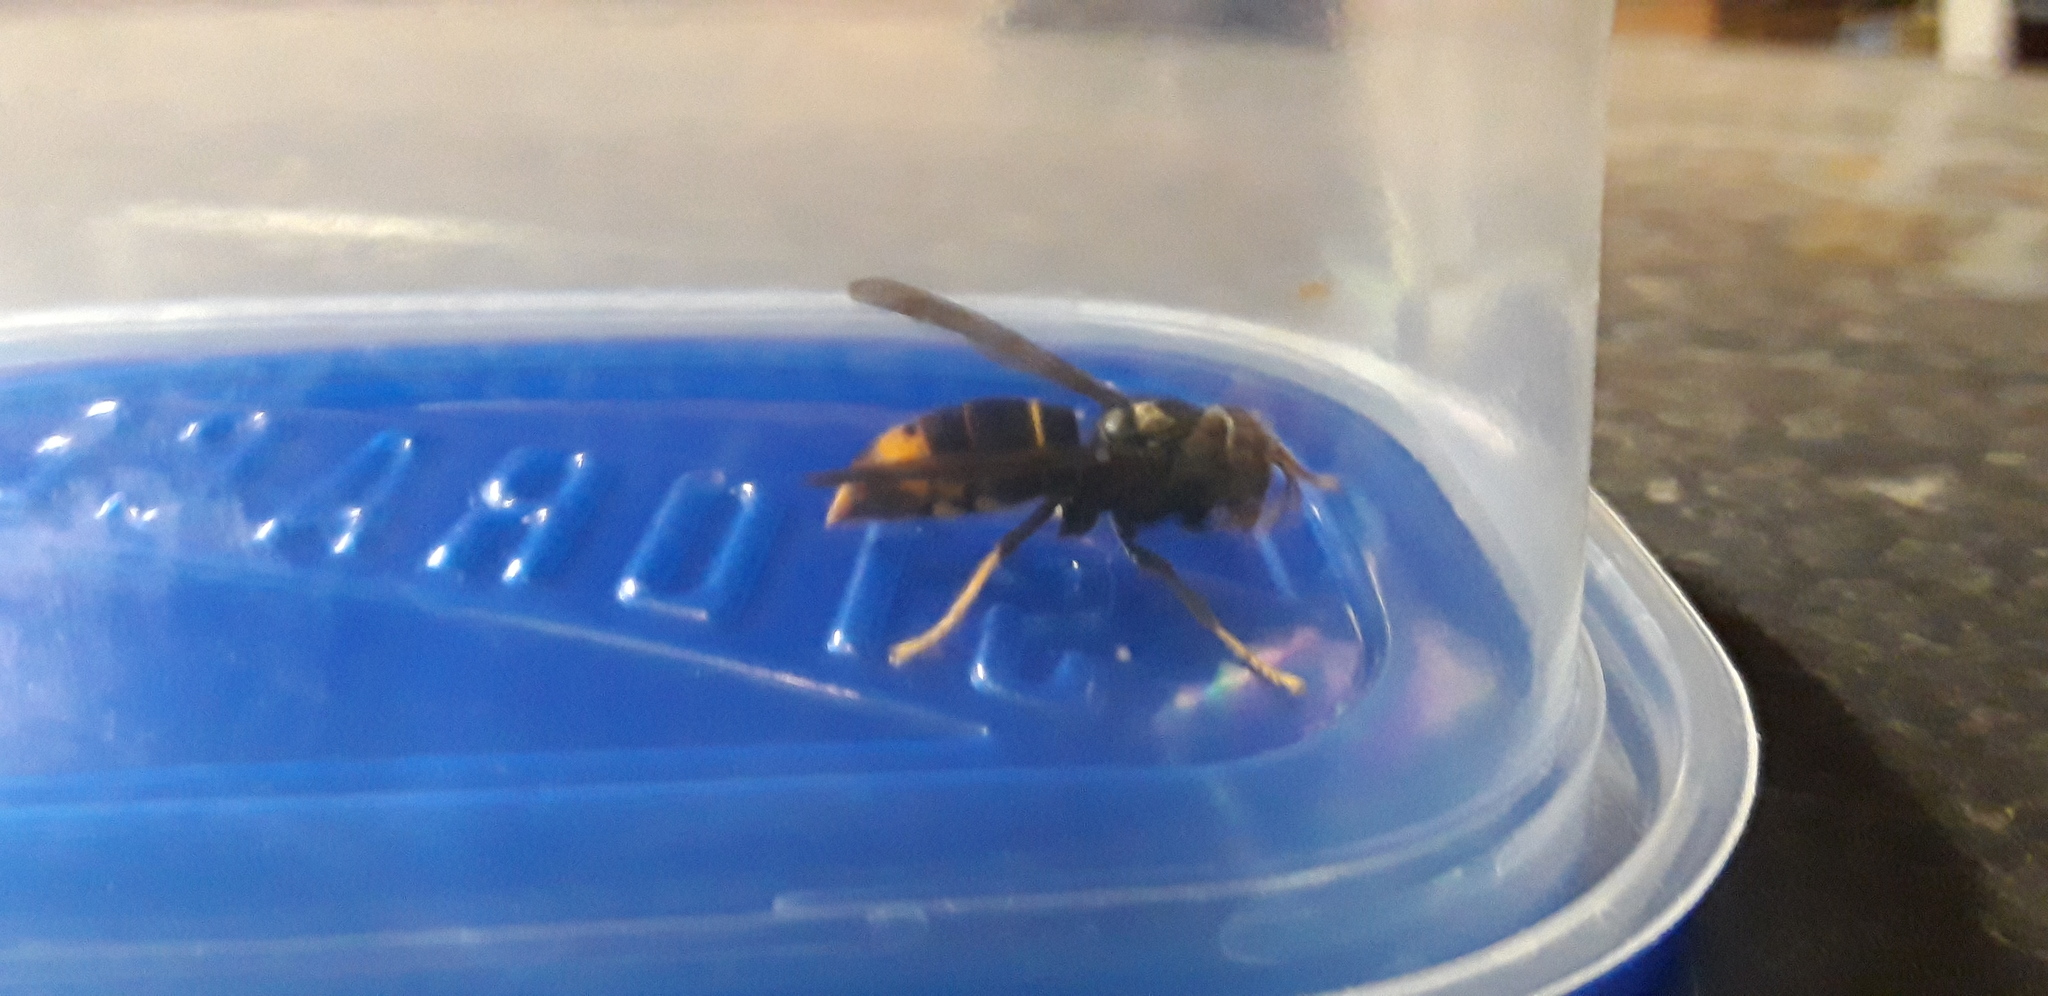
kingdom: Animalia
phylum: Arthropoda
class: Insecta
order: Hymenoptera
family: Vespidae
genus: Vespa
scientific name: Vespa velutina
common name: Asian hornet
